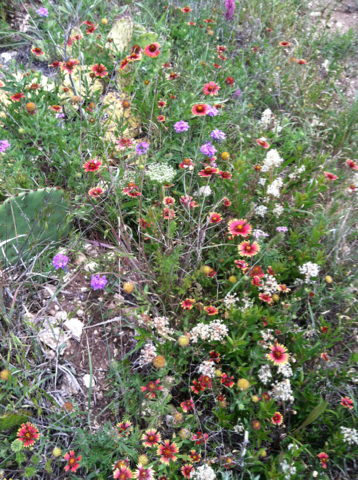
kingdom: Plantae
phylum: Tracheophyta
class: Magnoliopsida
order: Apiales
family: Apiaceae
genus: Daucus
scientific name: Daucus pusillus
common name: Southwest wild carrot
